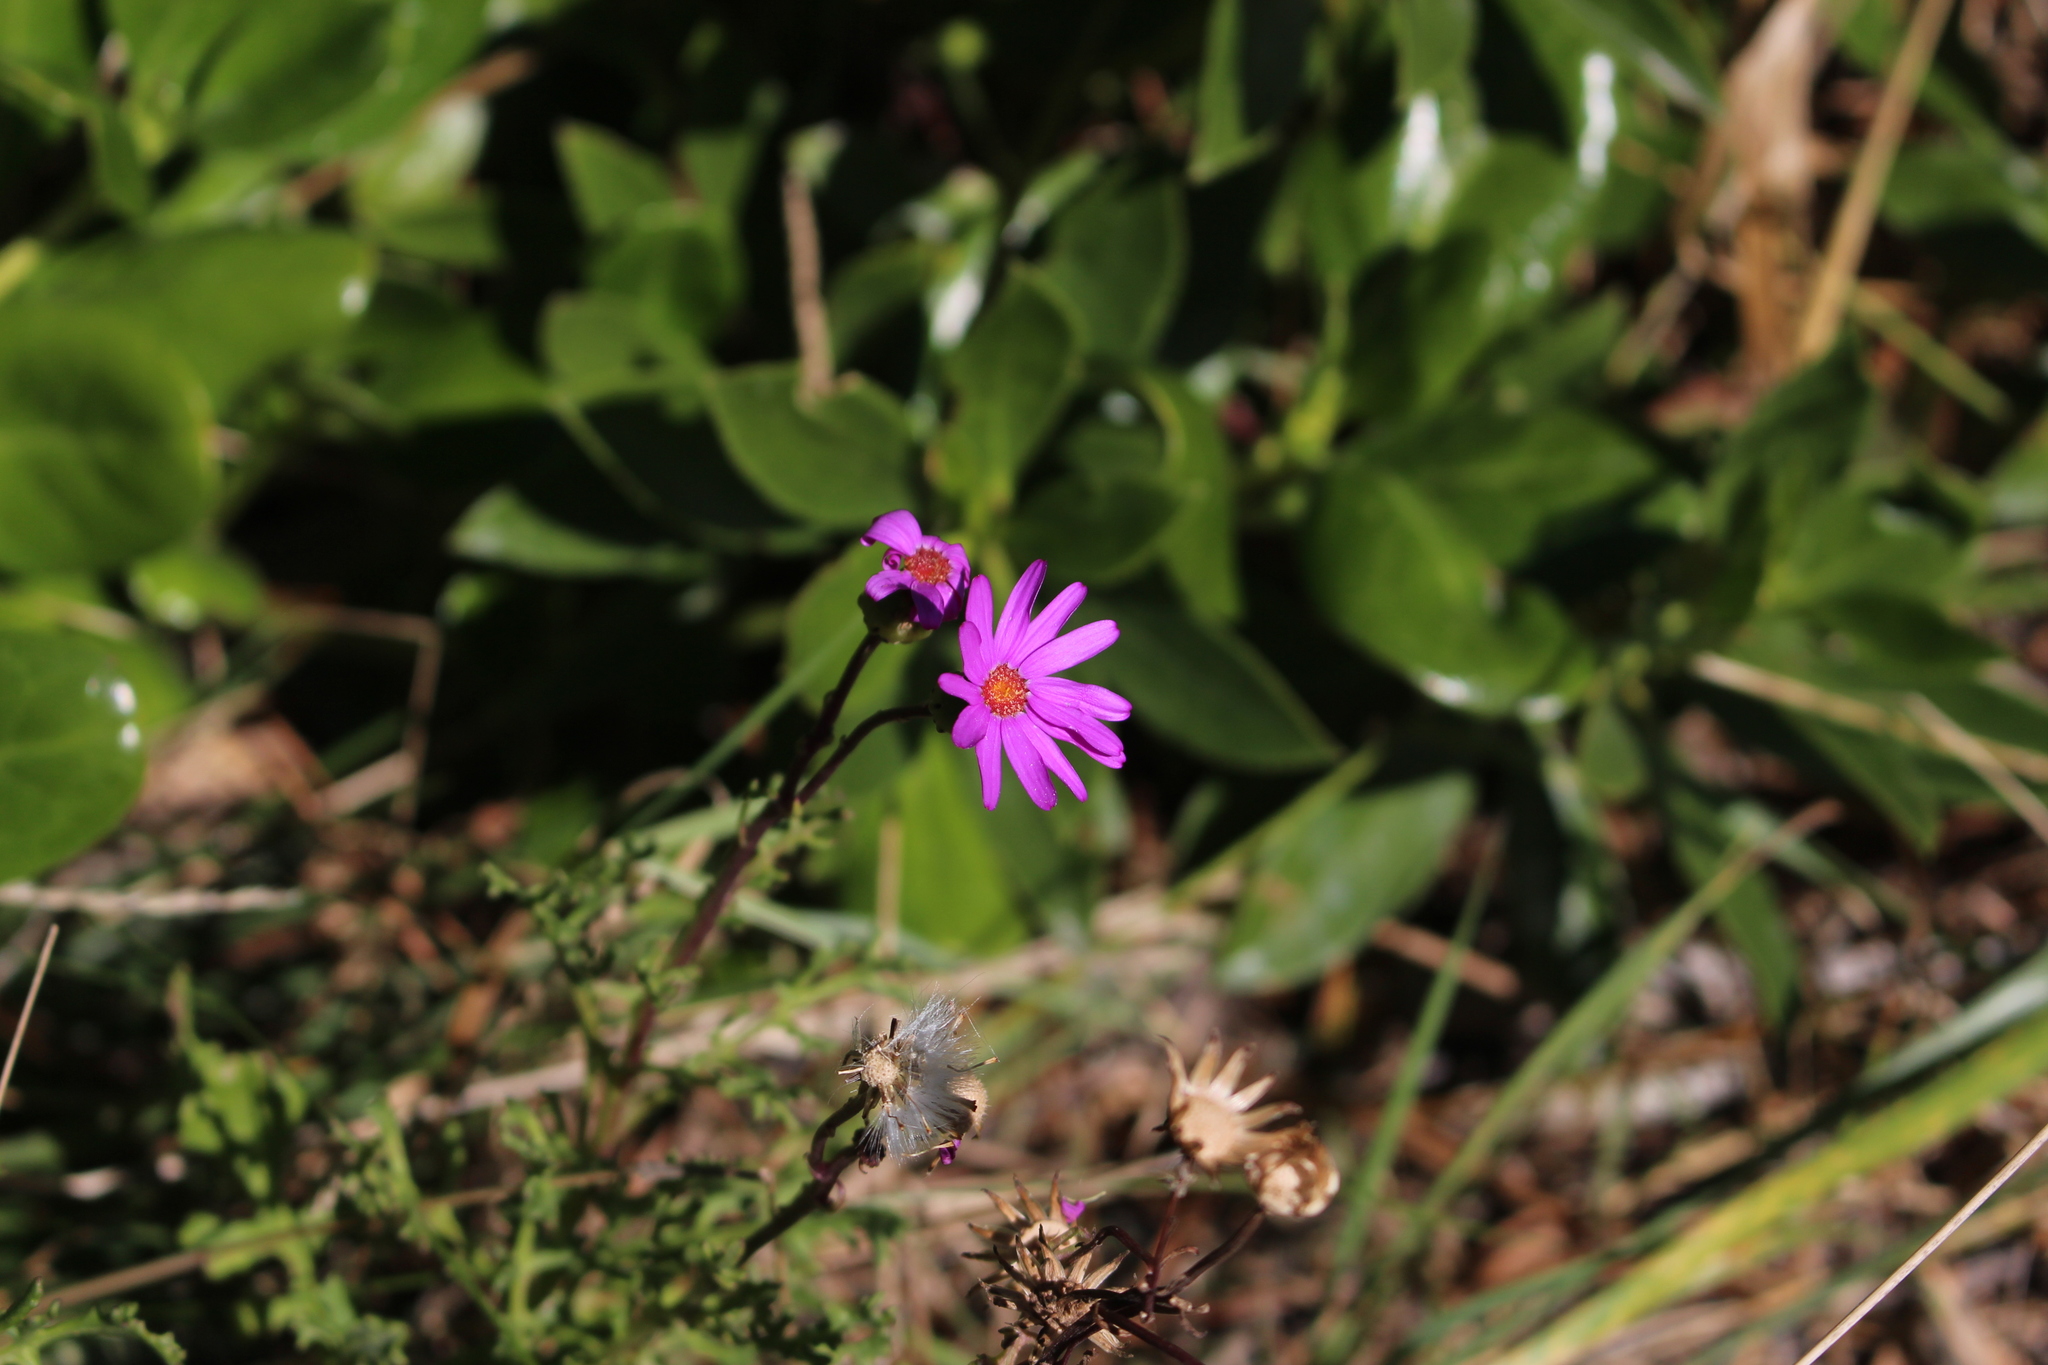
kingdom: Plantae
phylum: Tracheophyta
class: Magnoliopsida
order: Asterales
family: Asteraceae
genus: Senecio
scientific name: Senecio elegans
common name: Purple groundsel
